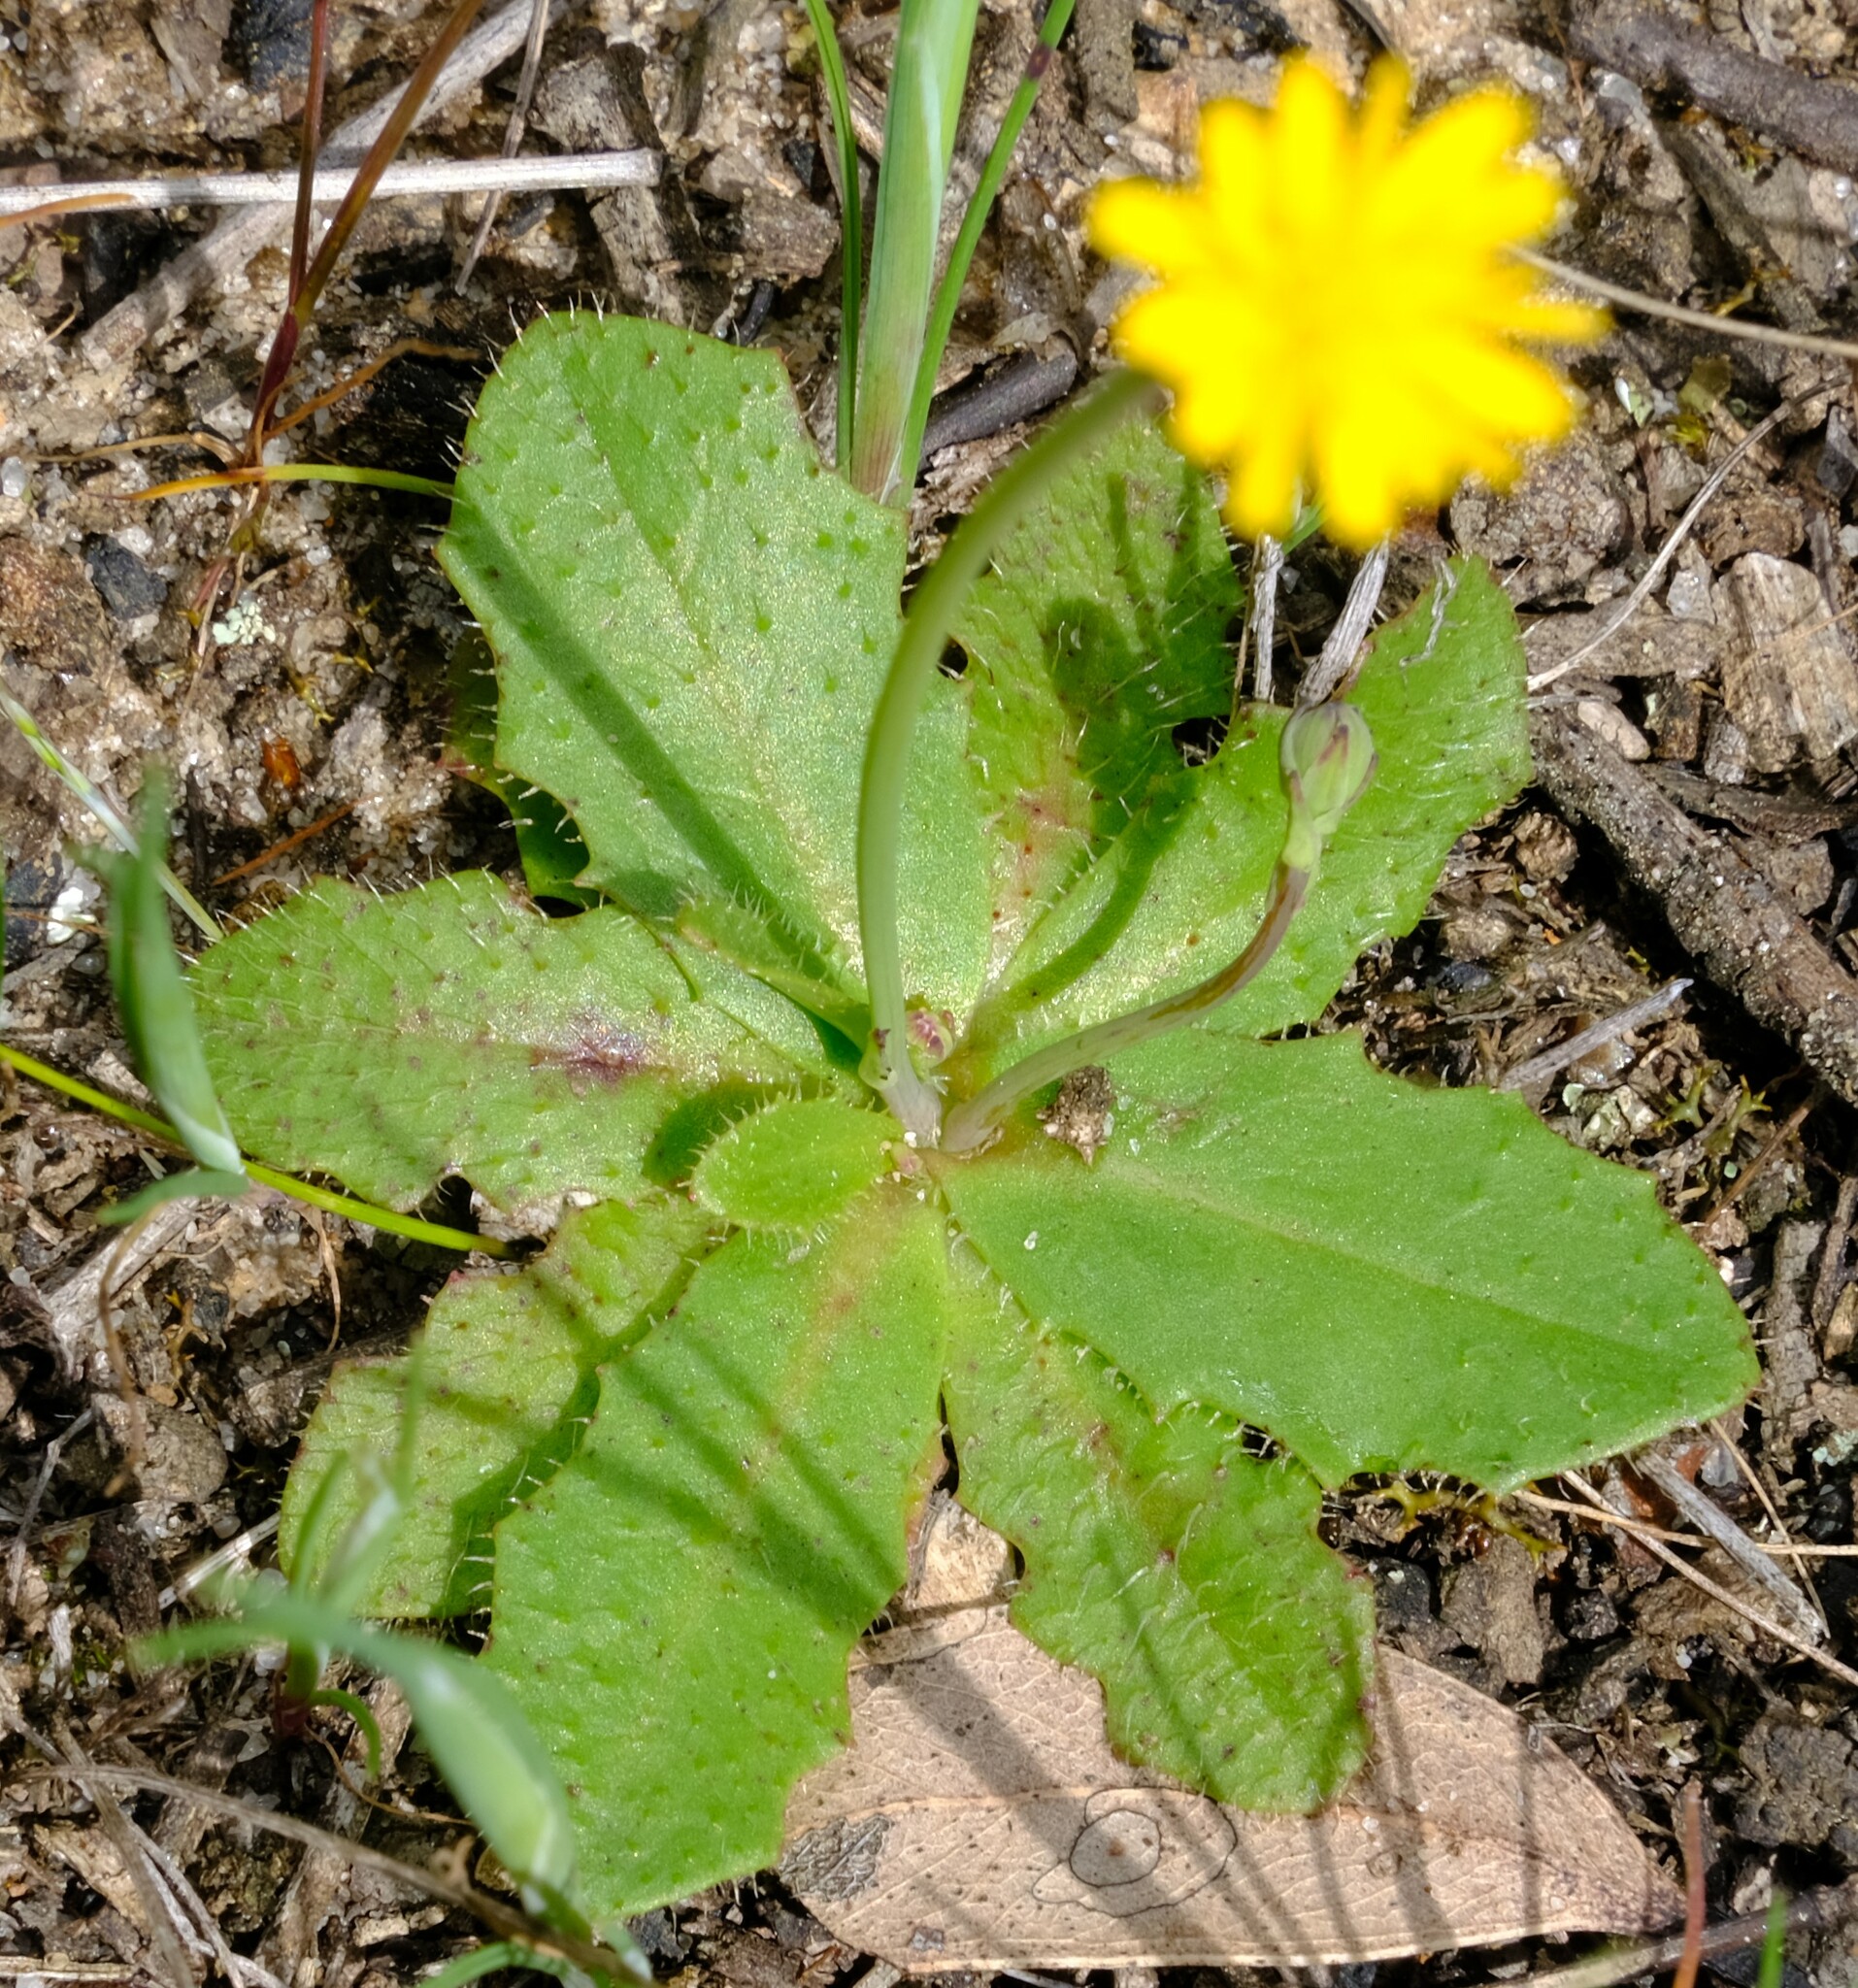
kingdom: Plantae
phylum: Tracheophyta
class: Magnoliopsida
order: Asterales
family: Asteraceae
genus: Hypochaeris
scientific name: Hypochaeris glabra
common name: Smooth catsear
